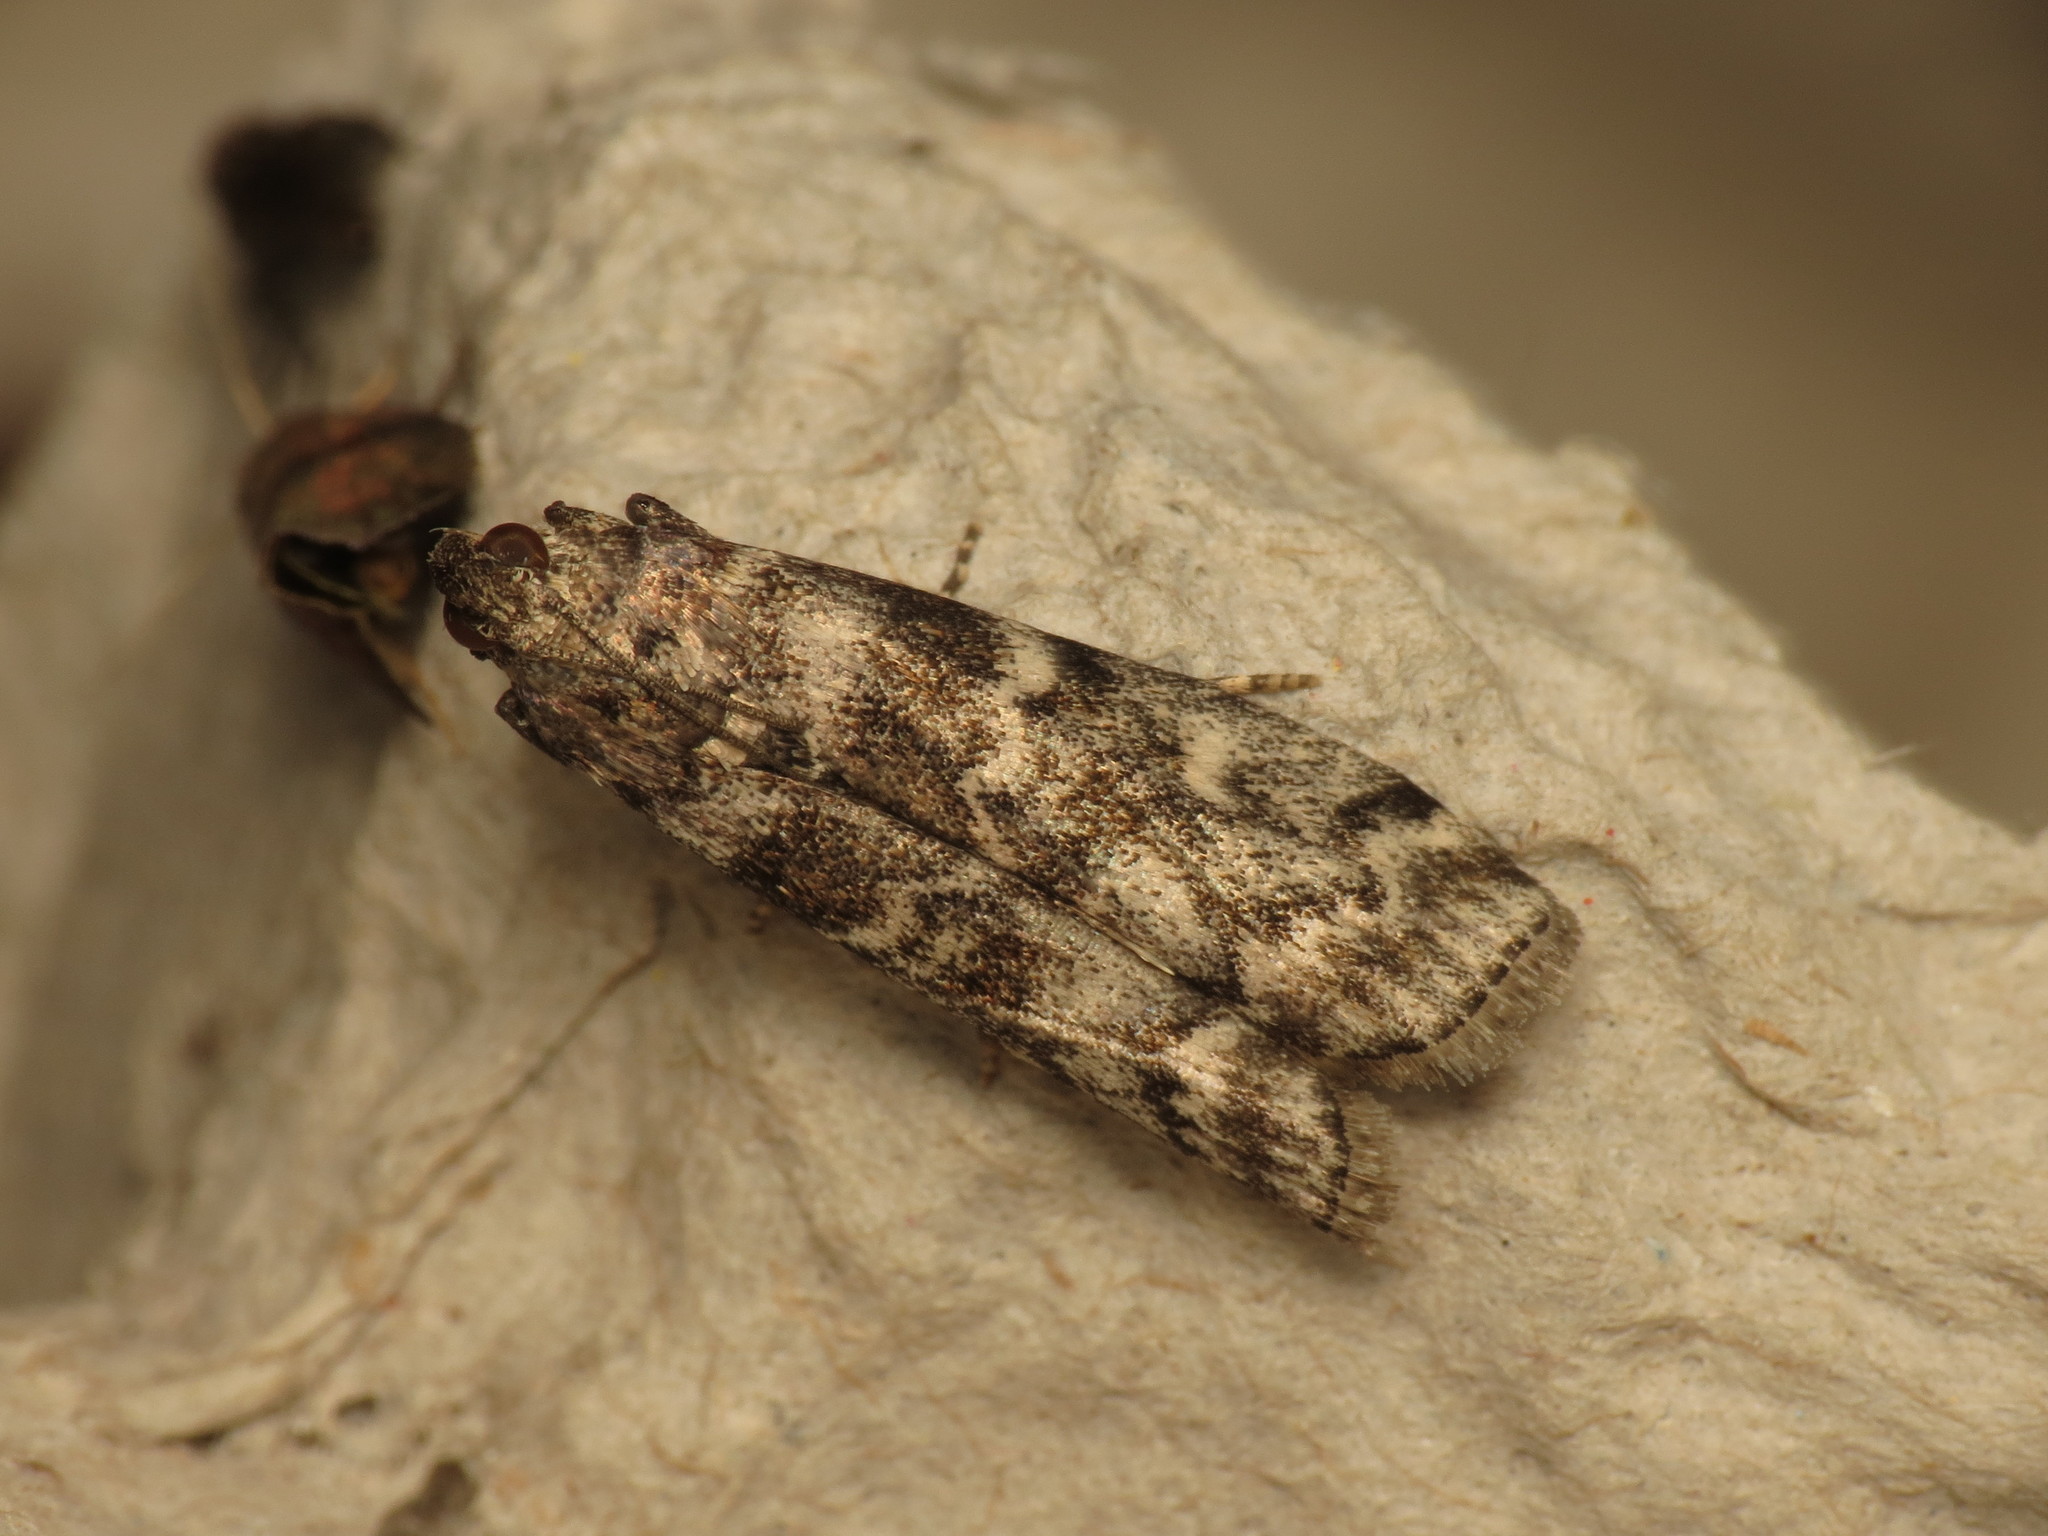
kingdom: Animalia
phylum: Arthropoda
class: Insecta
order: Lepidoptera
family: Pyralidae
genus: Dioryctria
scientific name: Dioryctria abietella
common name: Dark pine knot-horn
